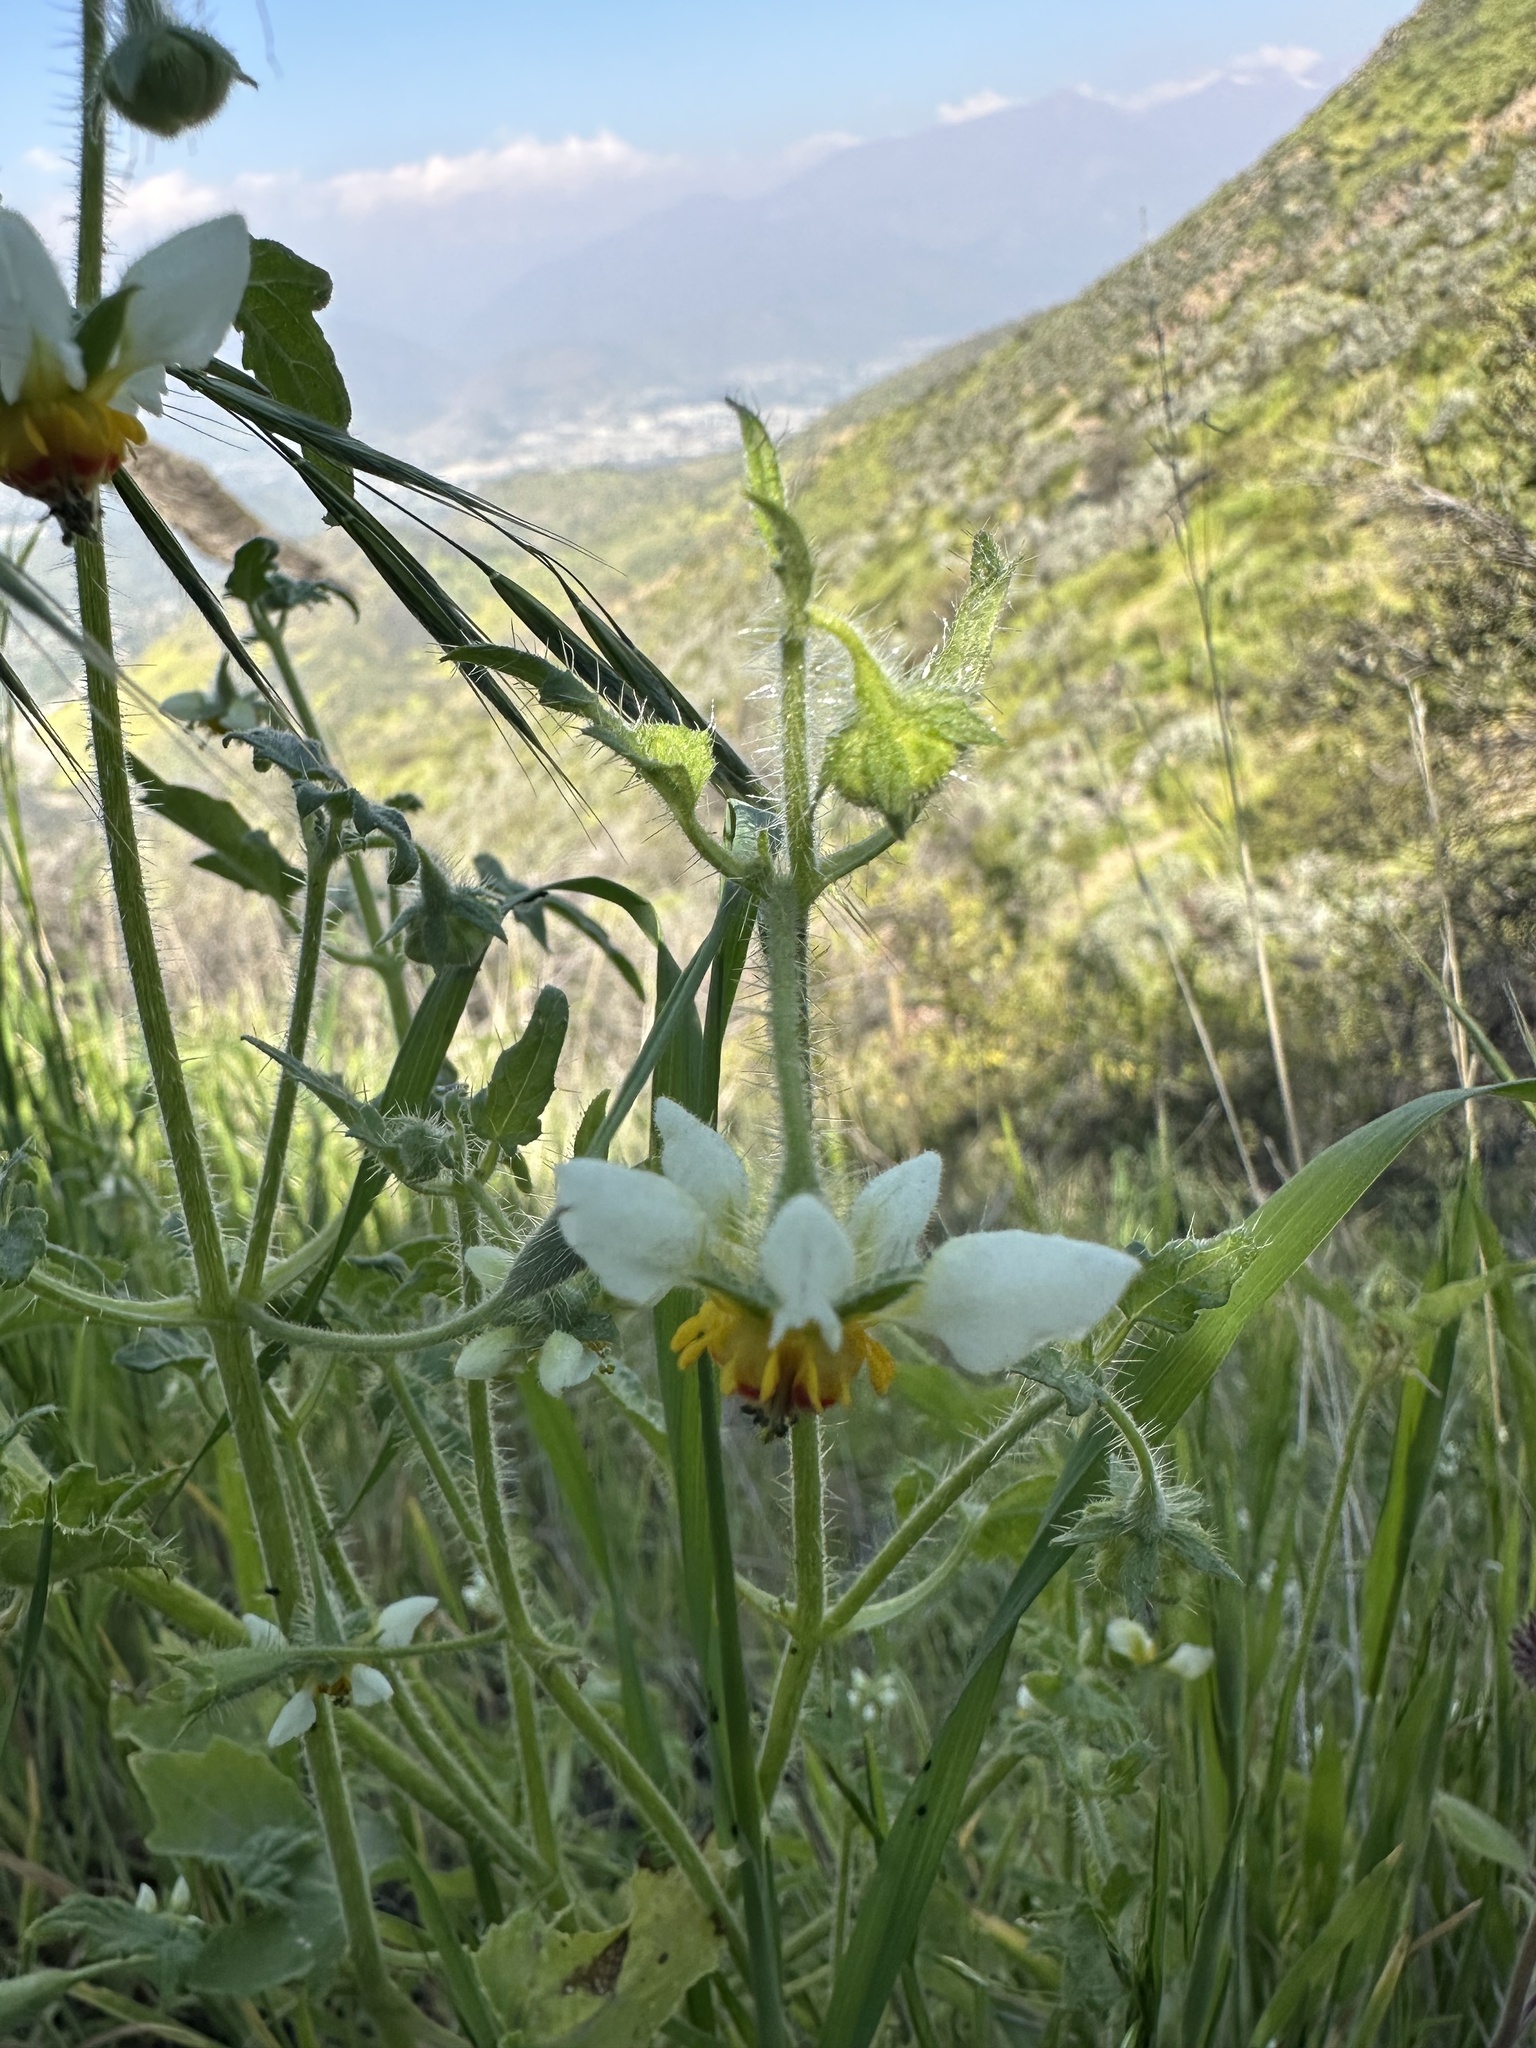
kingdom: Plantae
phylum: Tracheophyta
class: Magnoliopsida
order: Cornales
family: Loasaceae
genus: Loasa
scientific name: Loasa triloba
